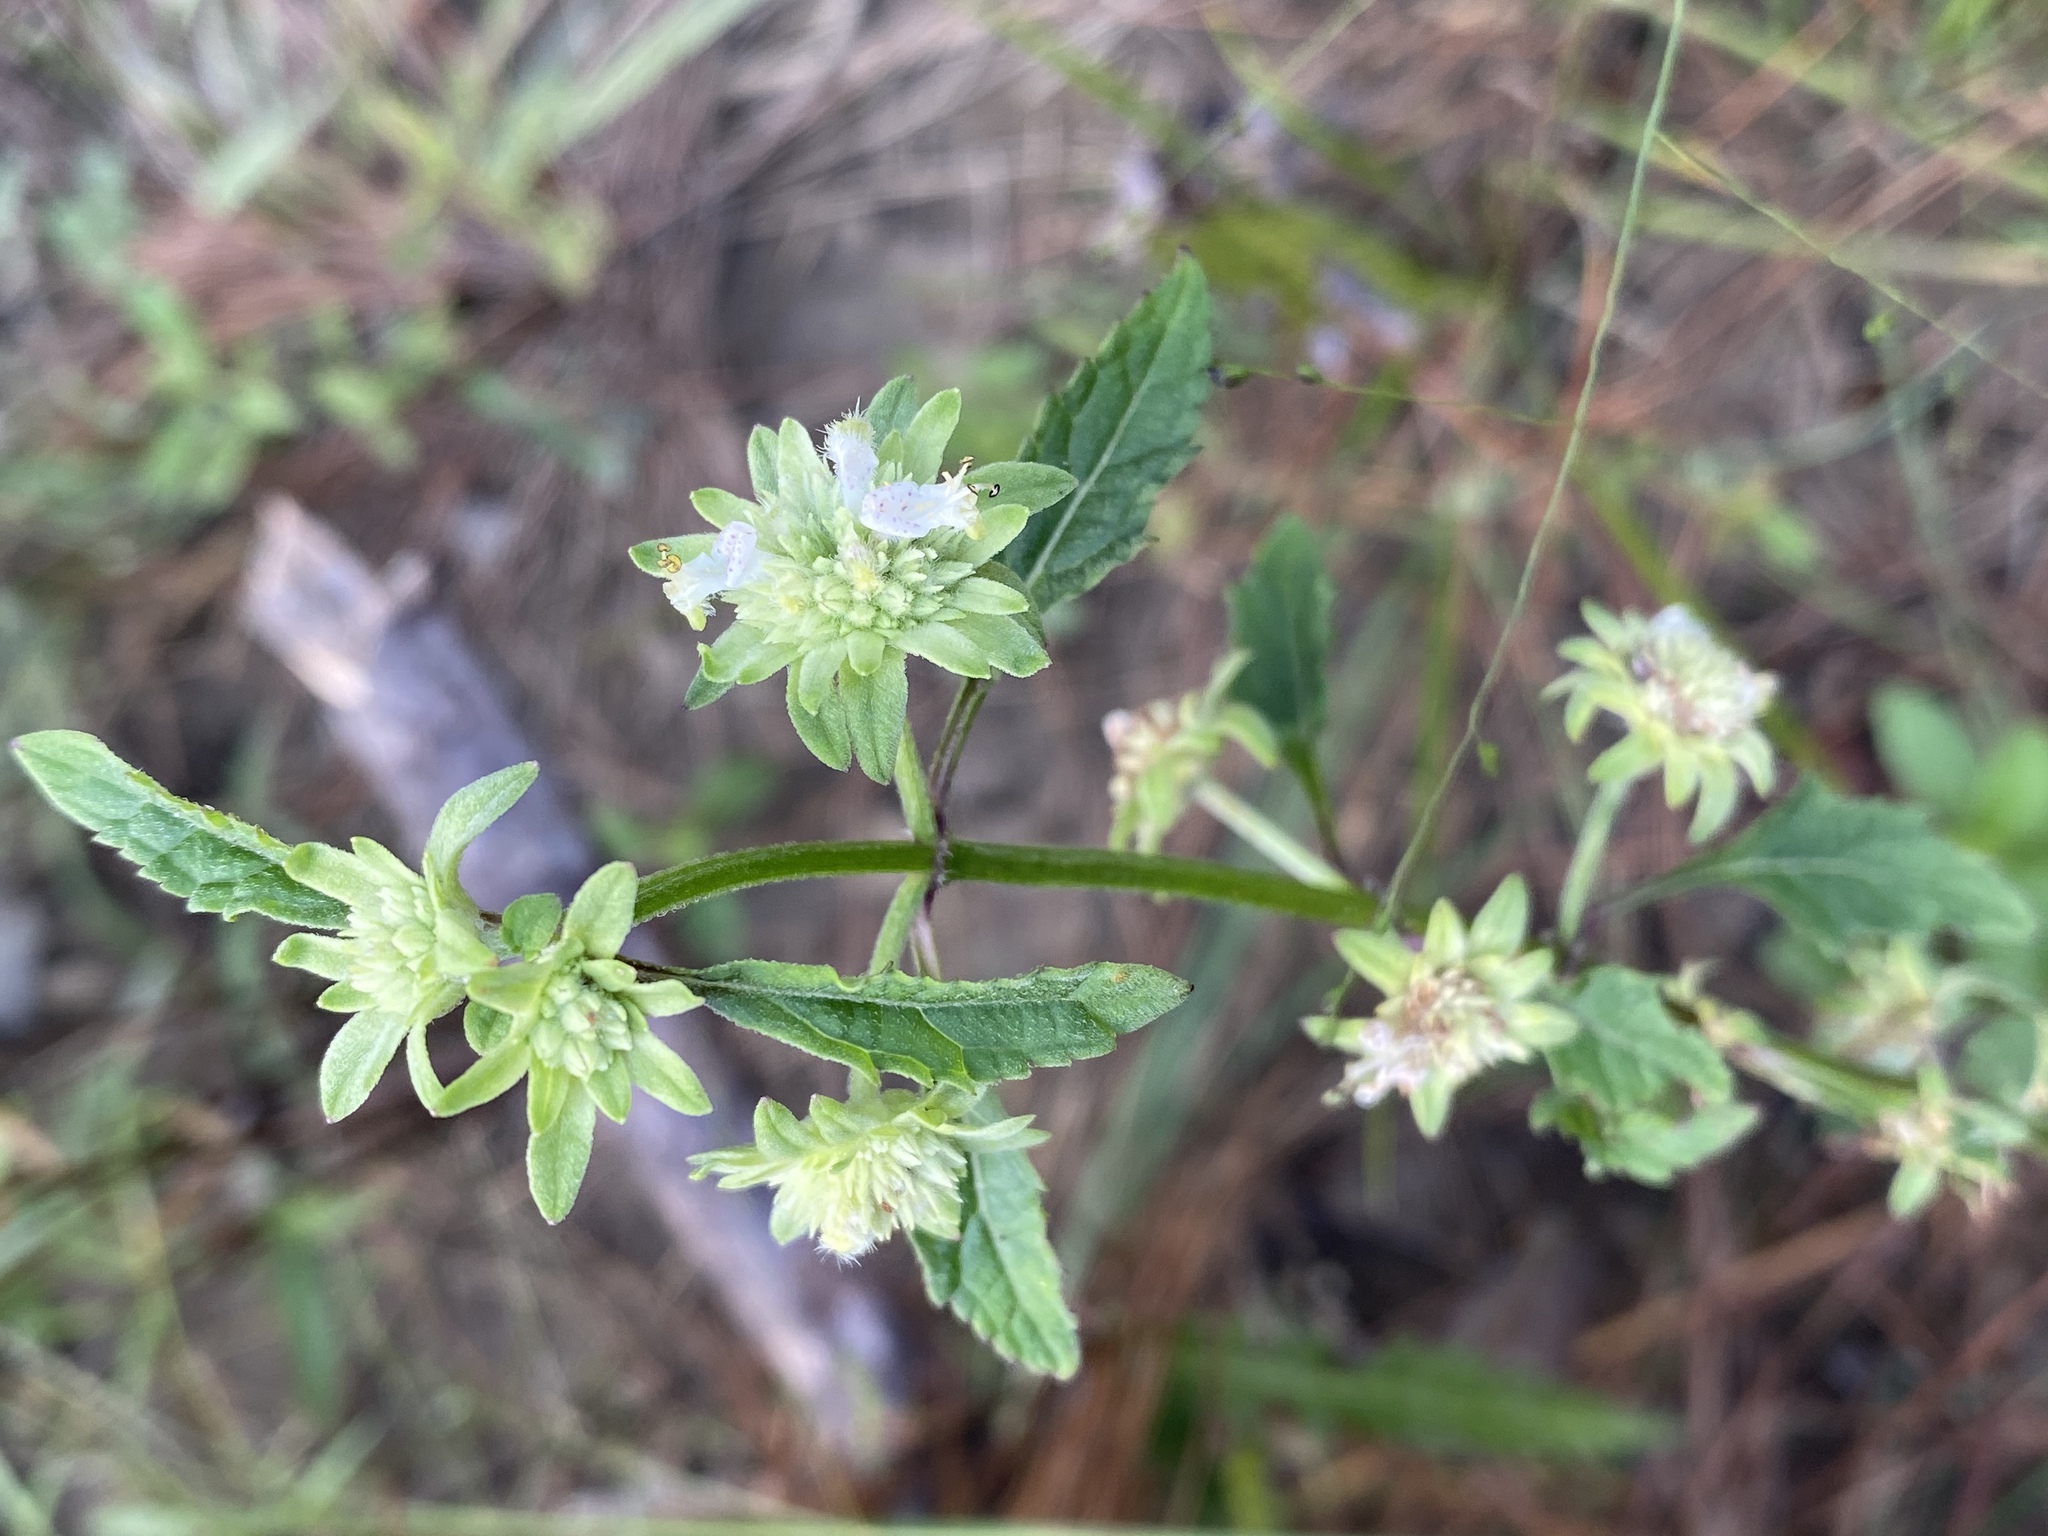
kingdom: Plantae
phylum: Tracheophyta
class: Magnoliopsida
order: Lamiales
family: Lamiaceae
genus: Hyptis
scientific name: Hyptis alata
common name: Cluster bush-mint
